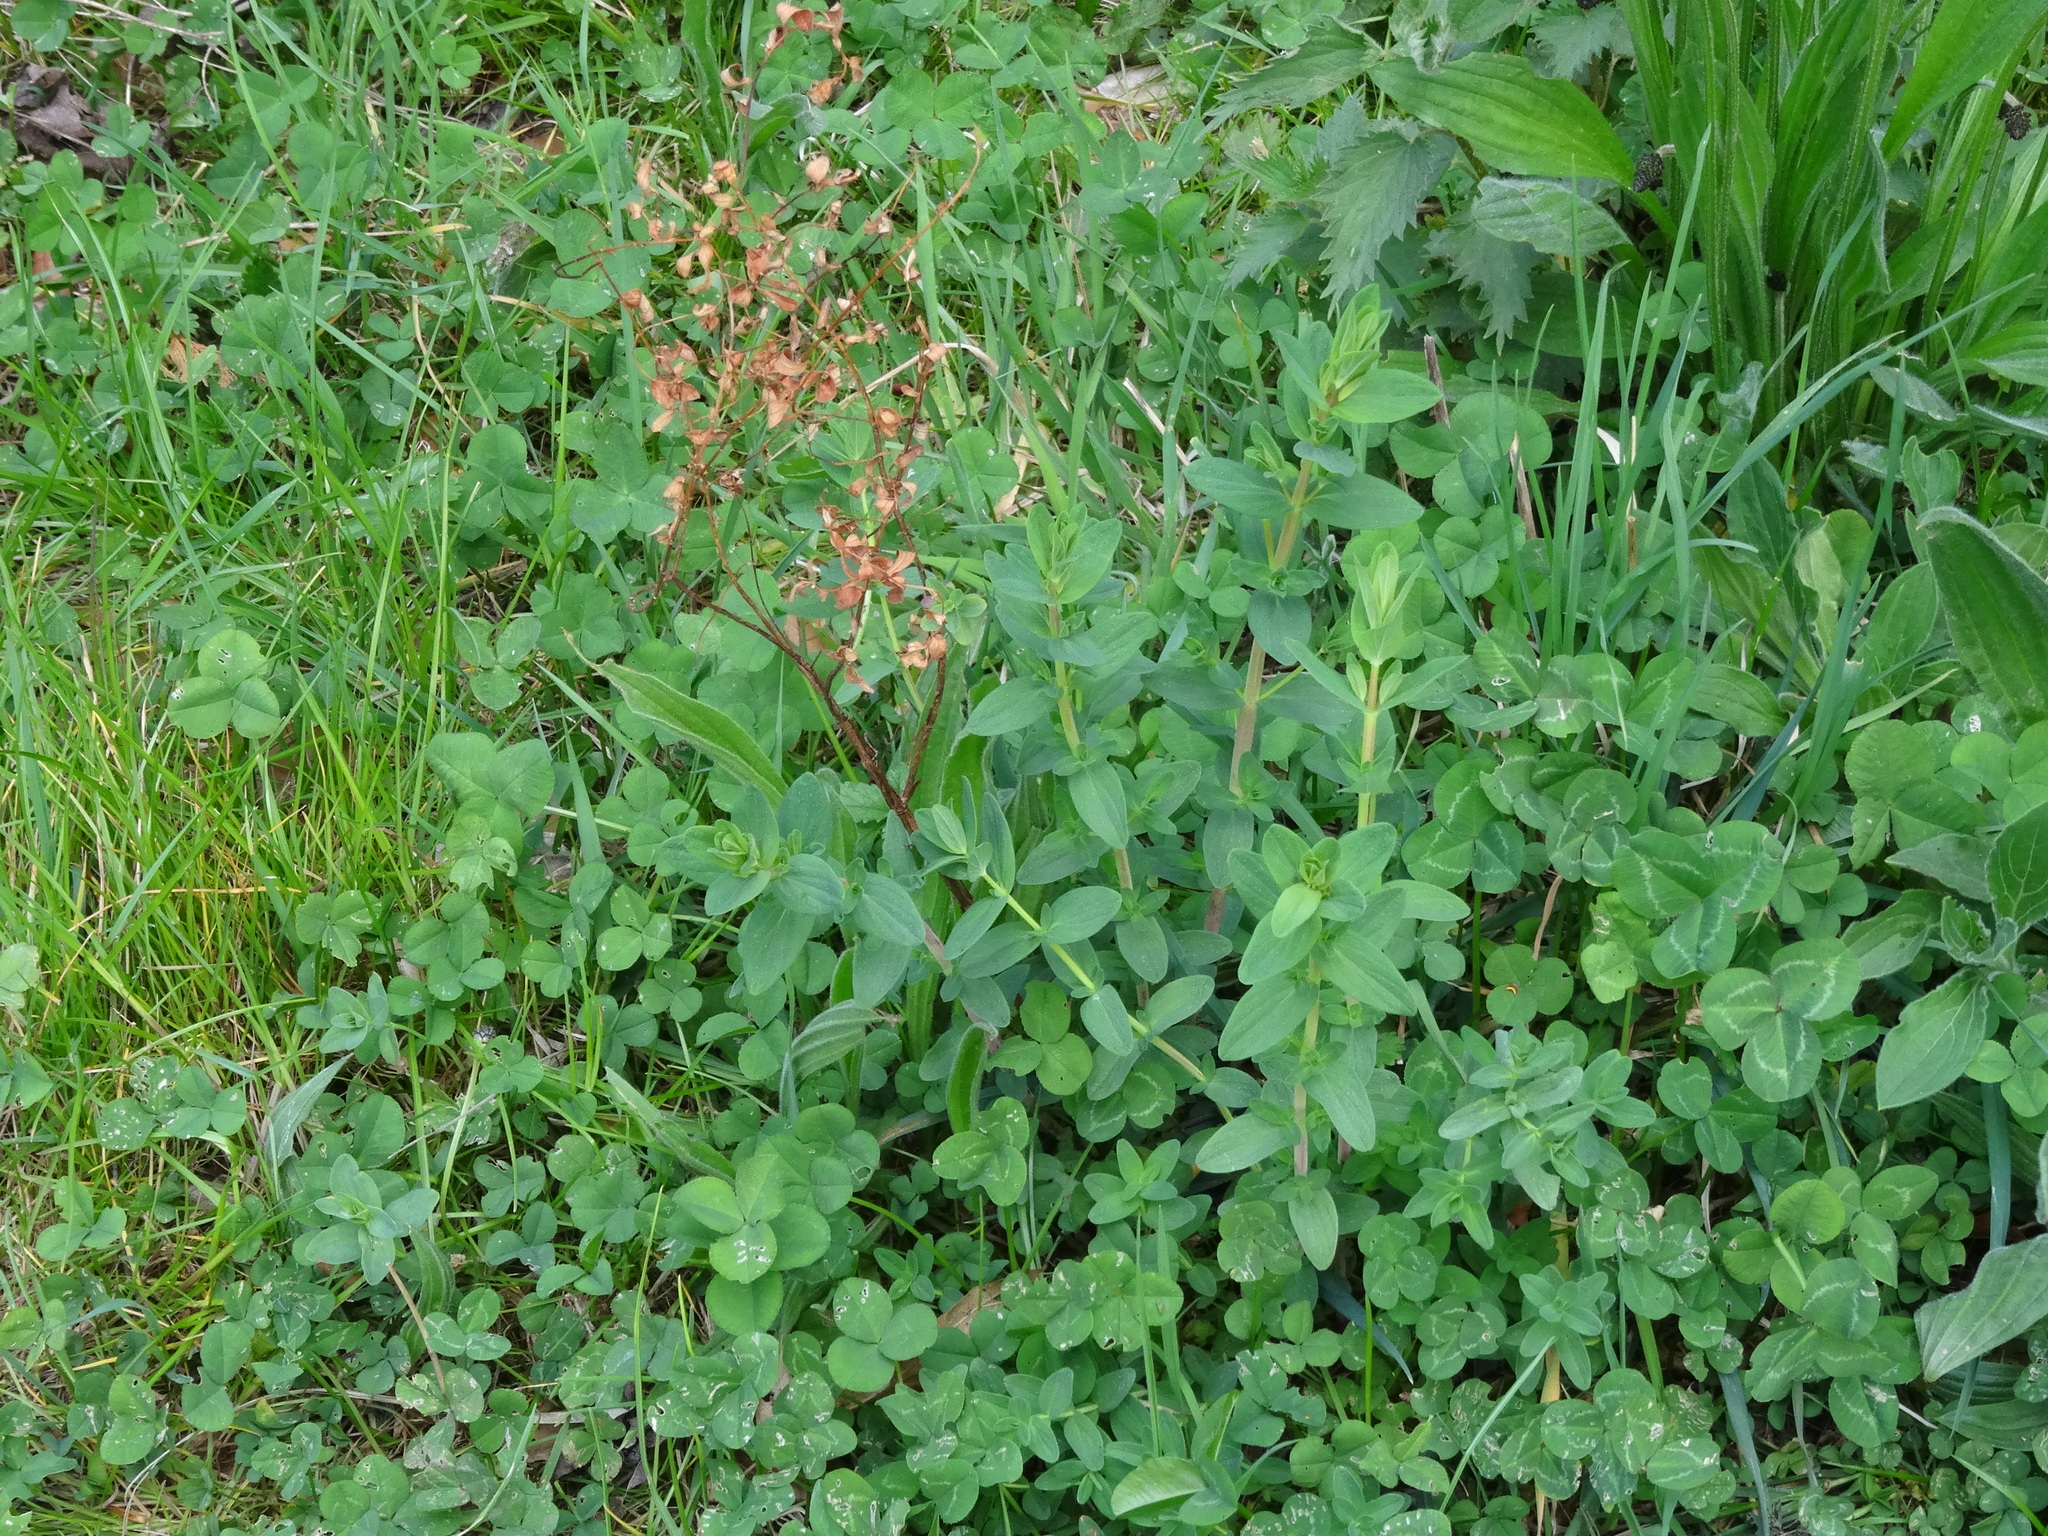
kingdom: Plantae
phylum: Tracheophyta
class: Magnoliopsida
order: Malpighiales
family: Hypericaceae
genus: Hypericum
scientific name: Hypericum perforatum
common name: Common st. johnswort
